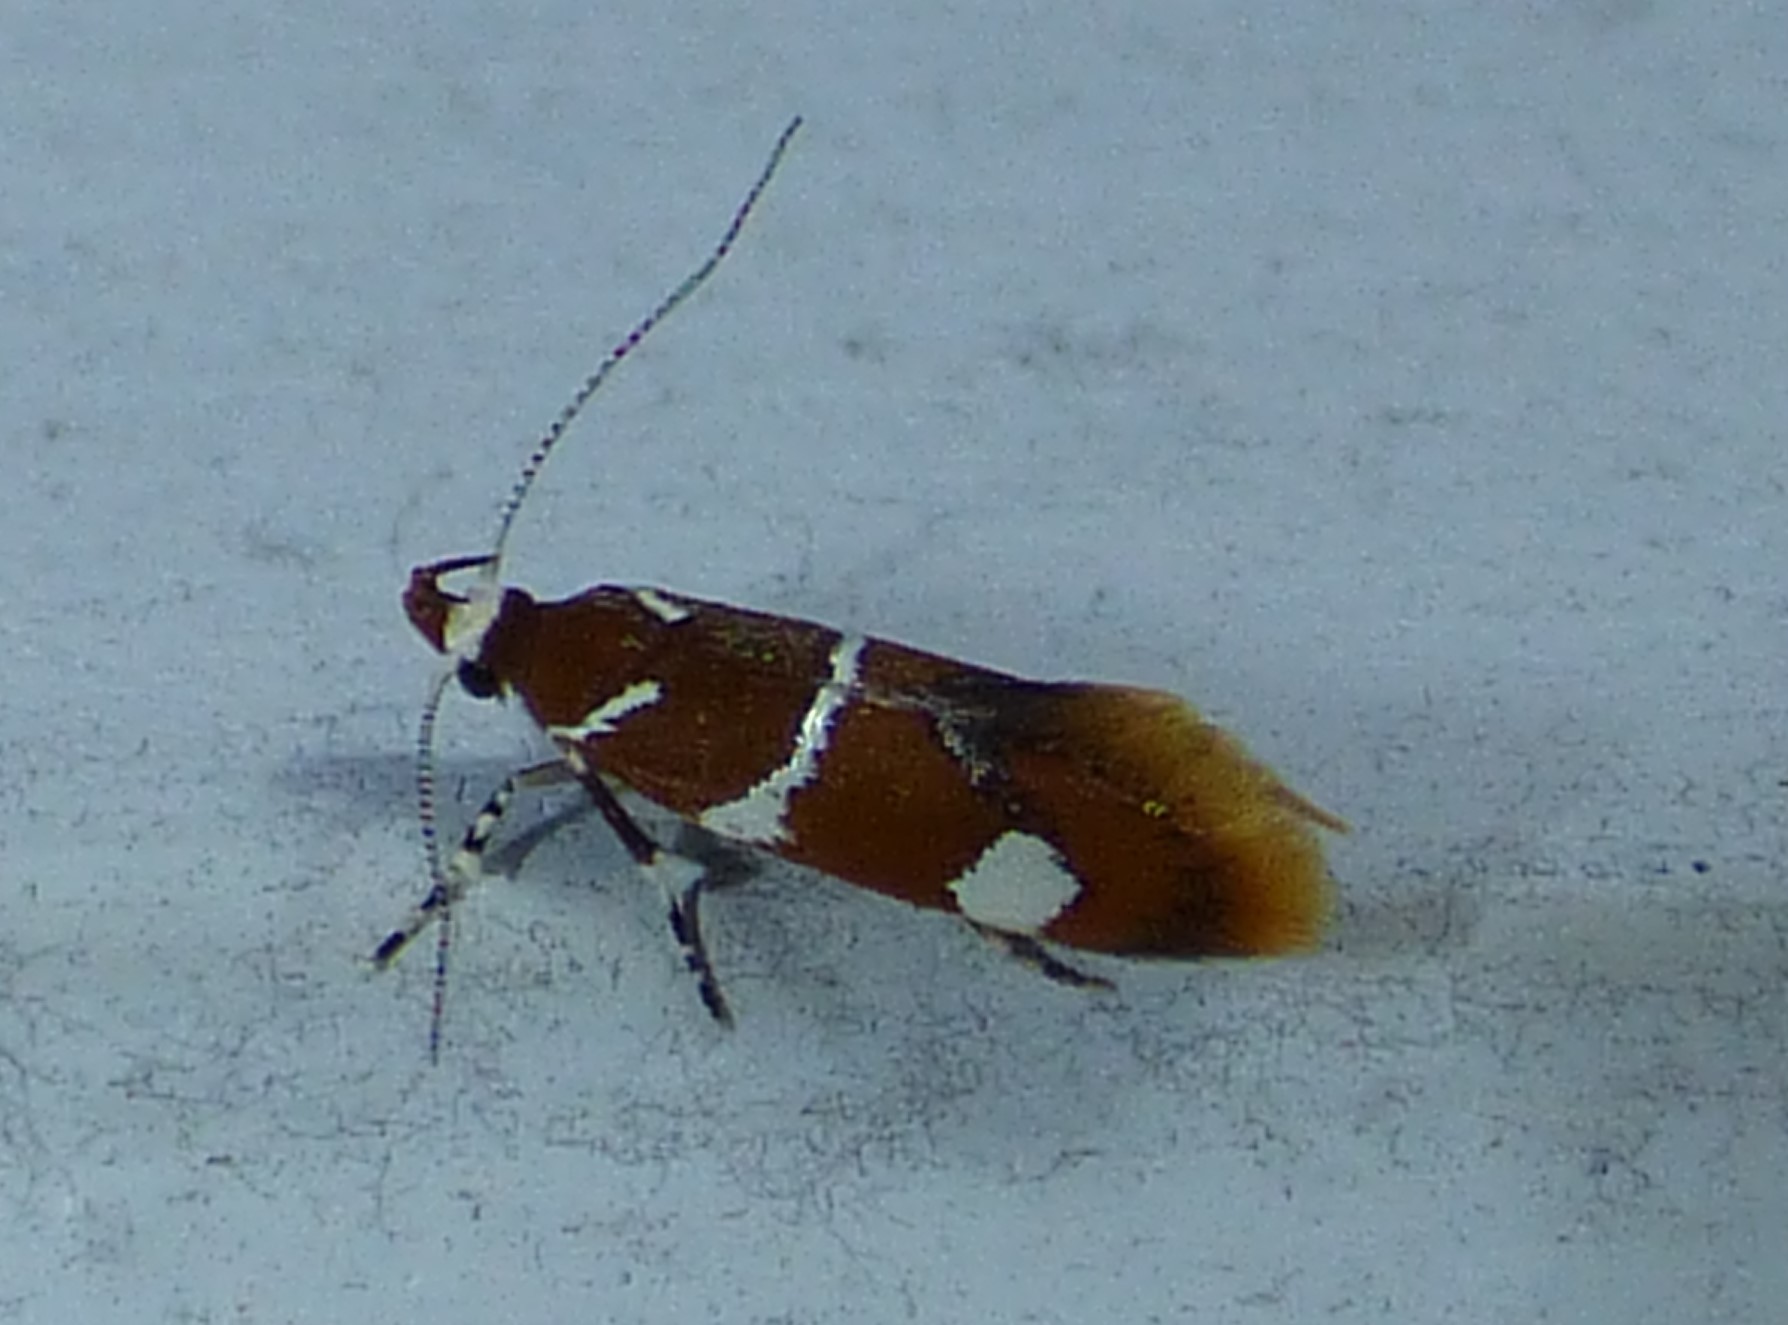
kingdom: Animalia
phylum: Arthropoda
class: Insecta
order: Lepidoptera
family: Oecophoridae
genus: Promalactis
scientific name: Promalactis suzukiella
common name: Moth
